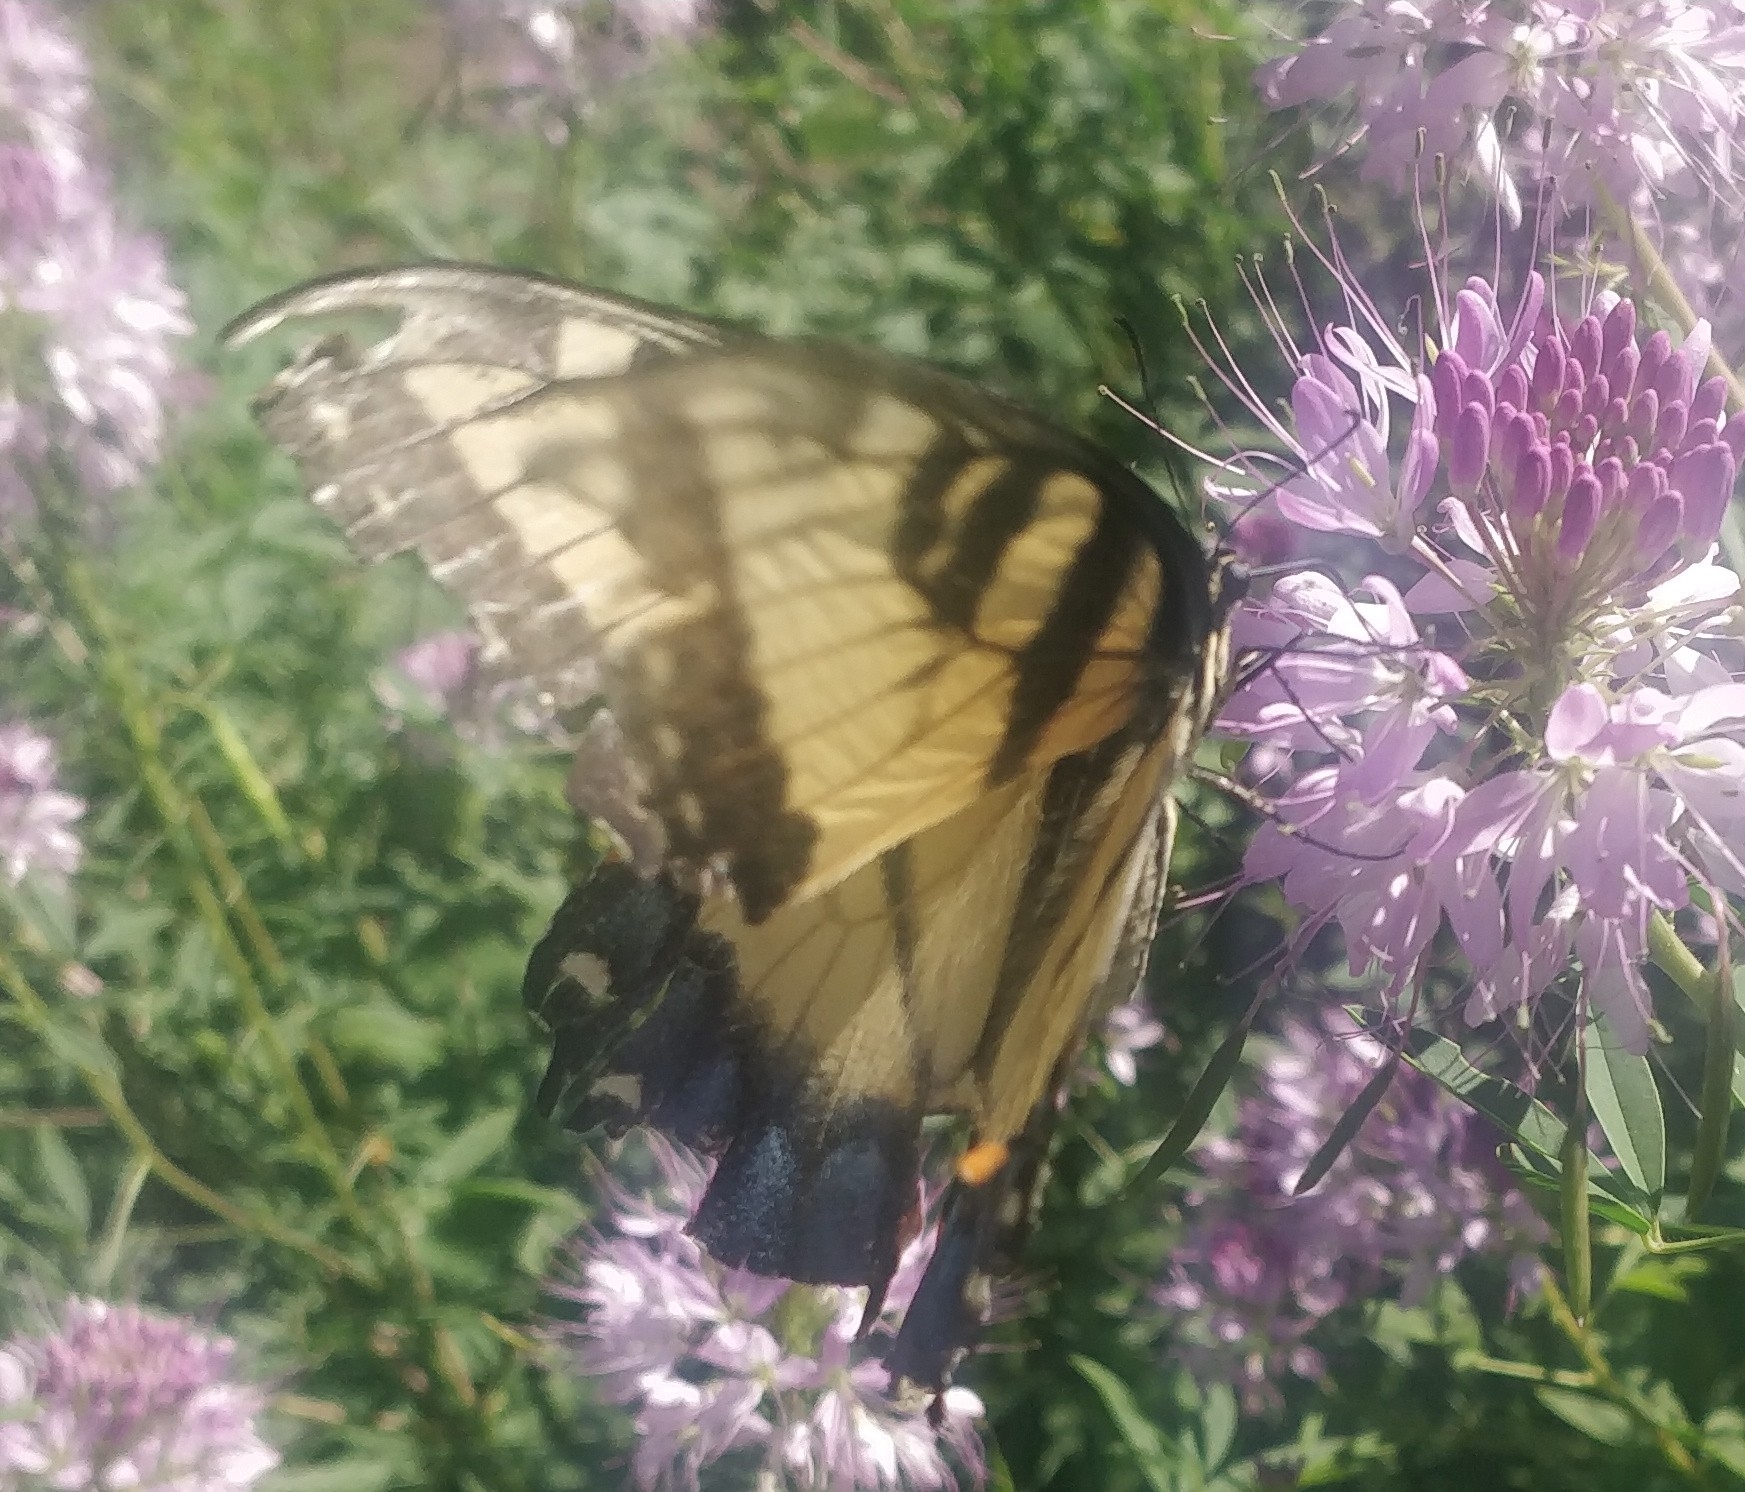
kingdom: Animalia
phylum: Arthropoda
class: Insecta
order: Lepidoptera
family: Papilionidae
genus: Papilio
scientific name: Papilio glaucus
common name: Tiger swallowtail
